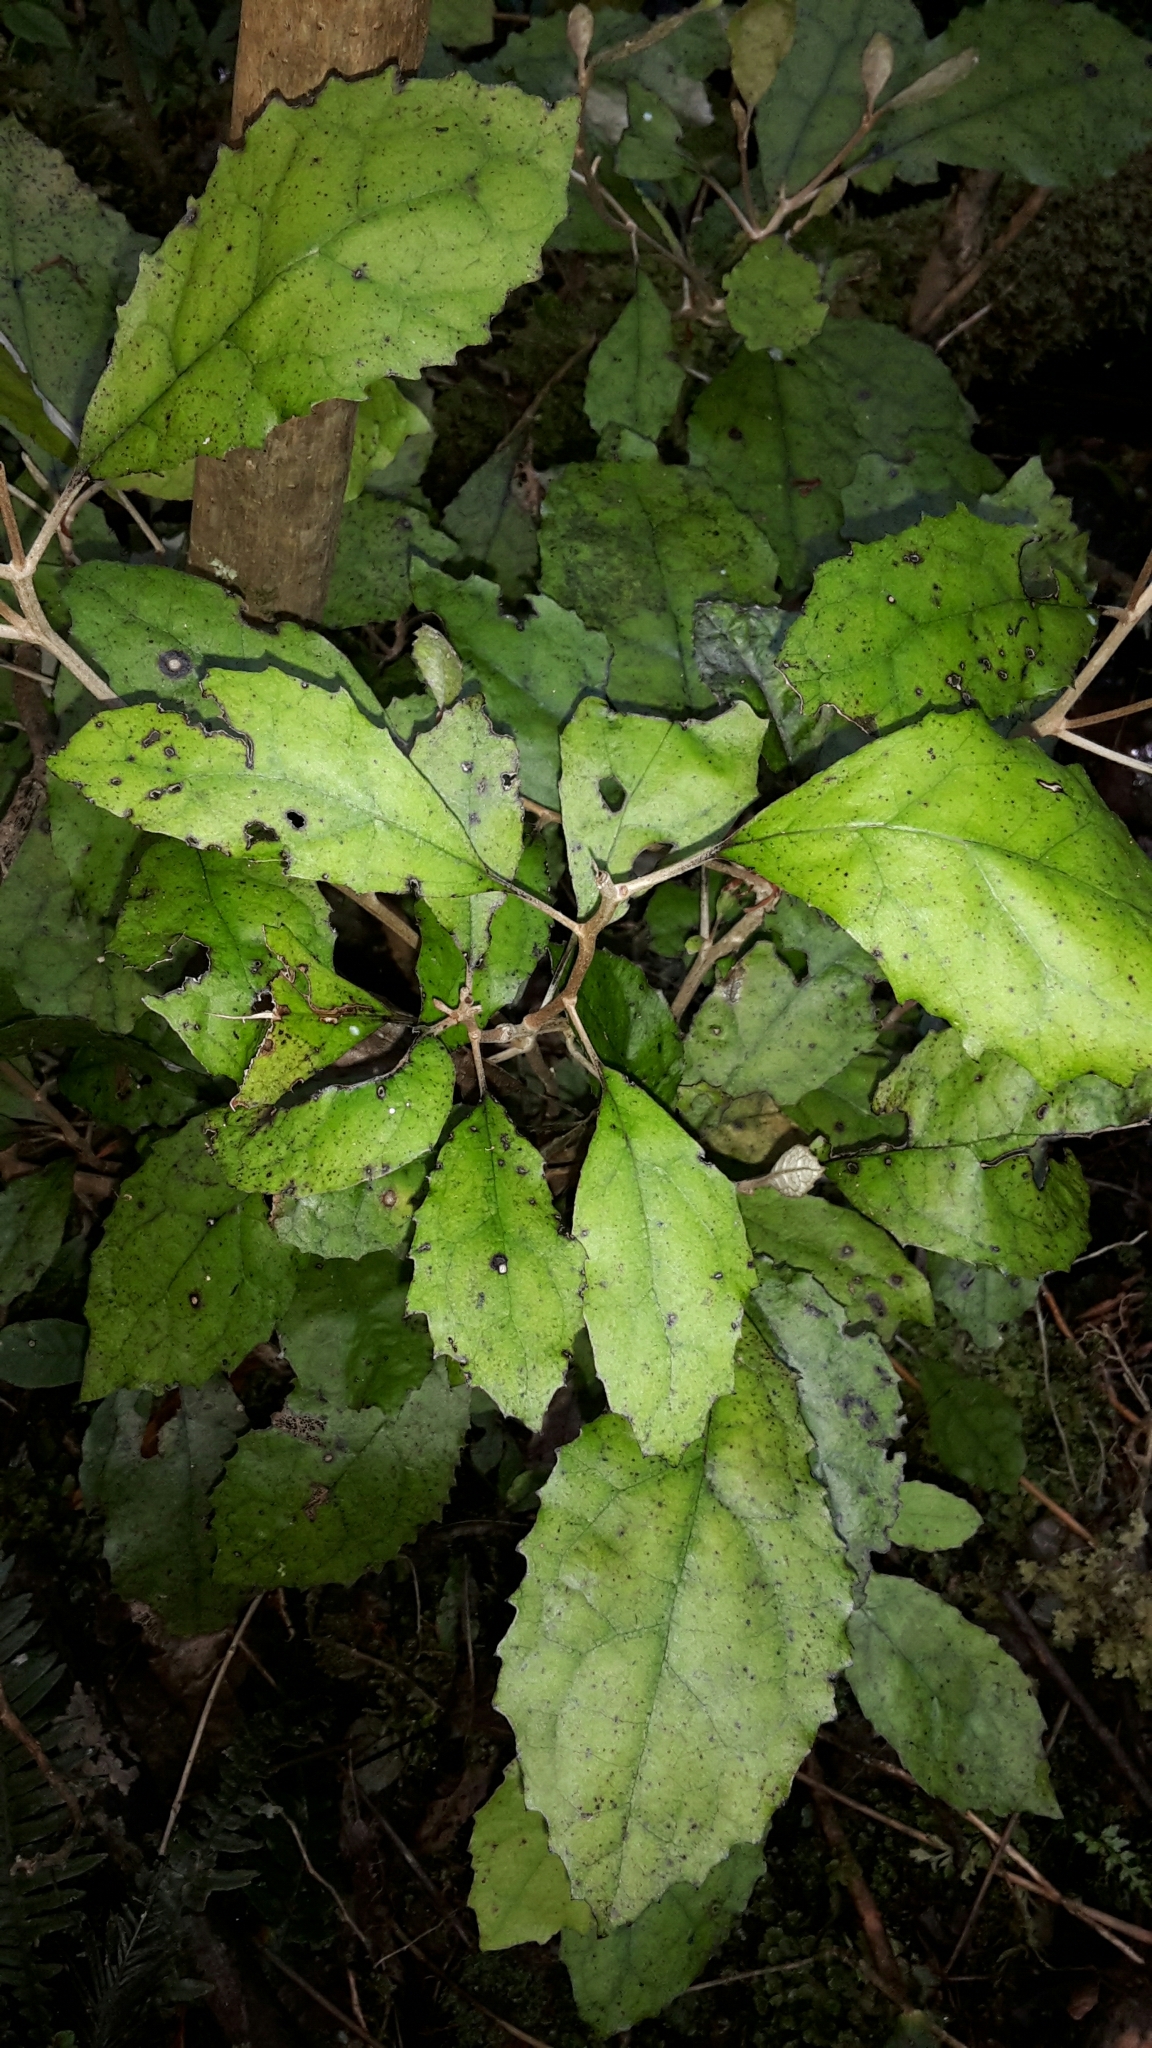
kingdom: Plantae
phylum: Tracheophyta
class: Magnoliopsida
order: Asterales
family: Asteraceae
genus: Olearia
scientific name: Olearia rani
